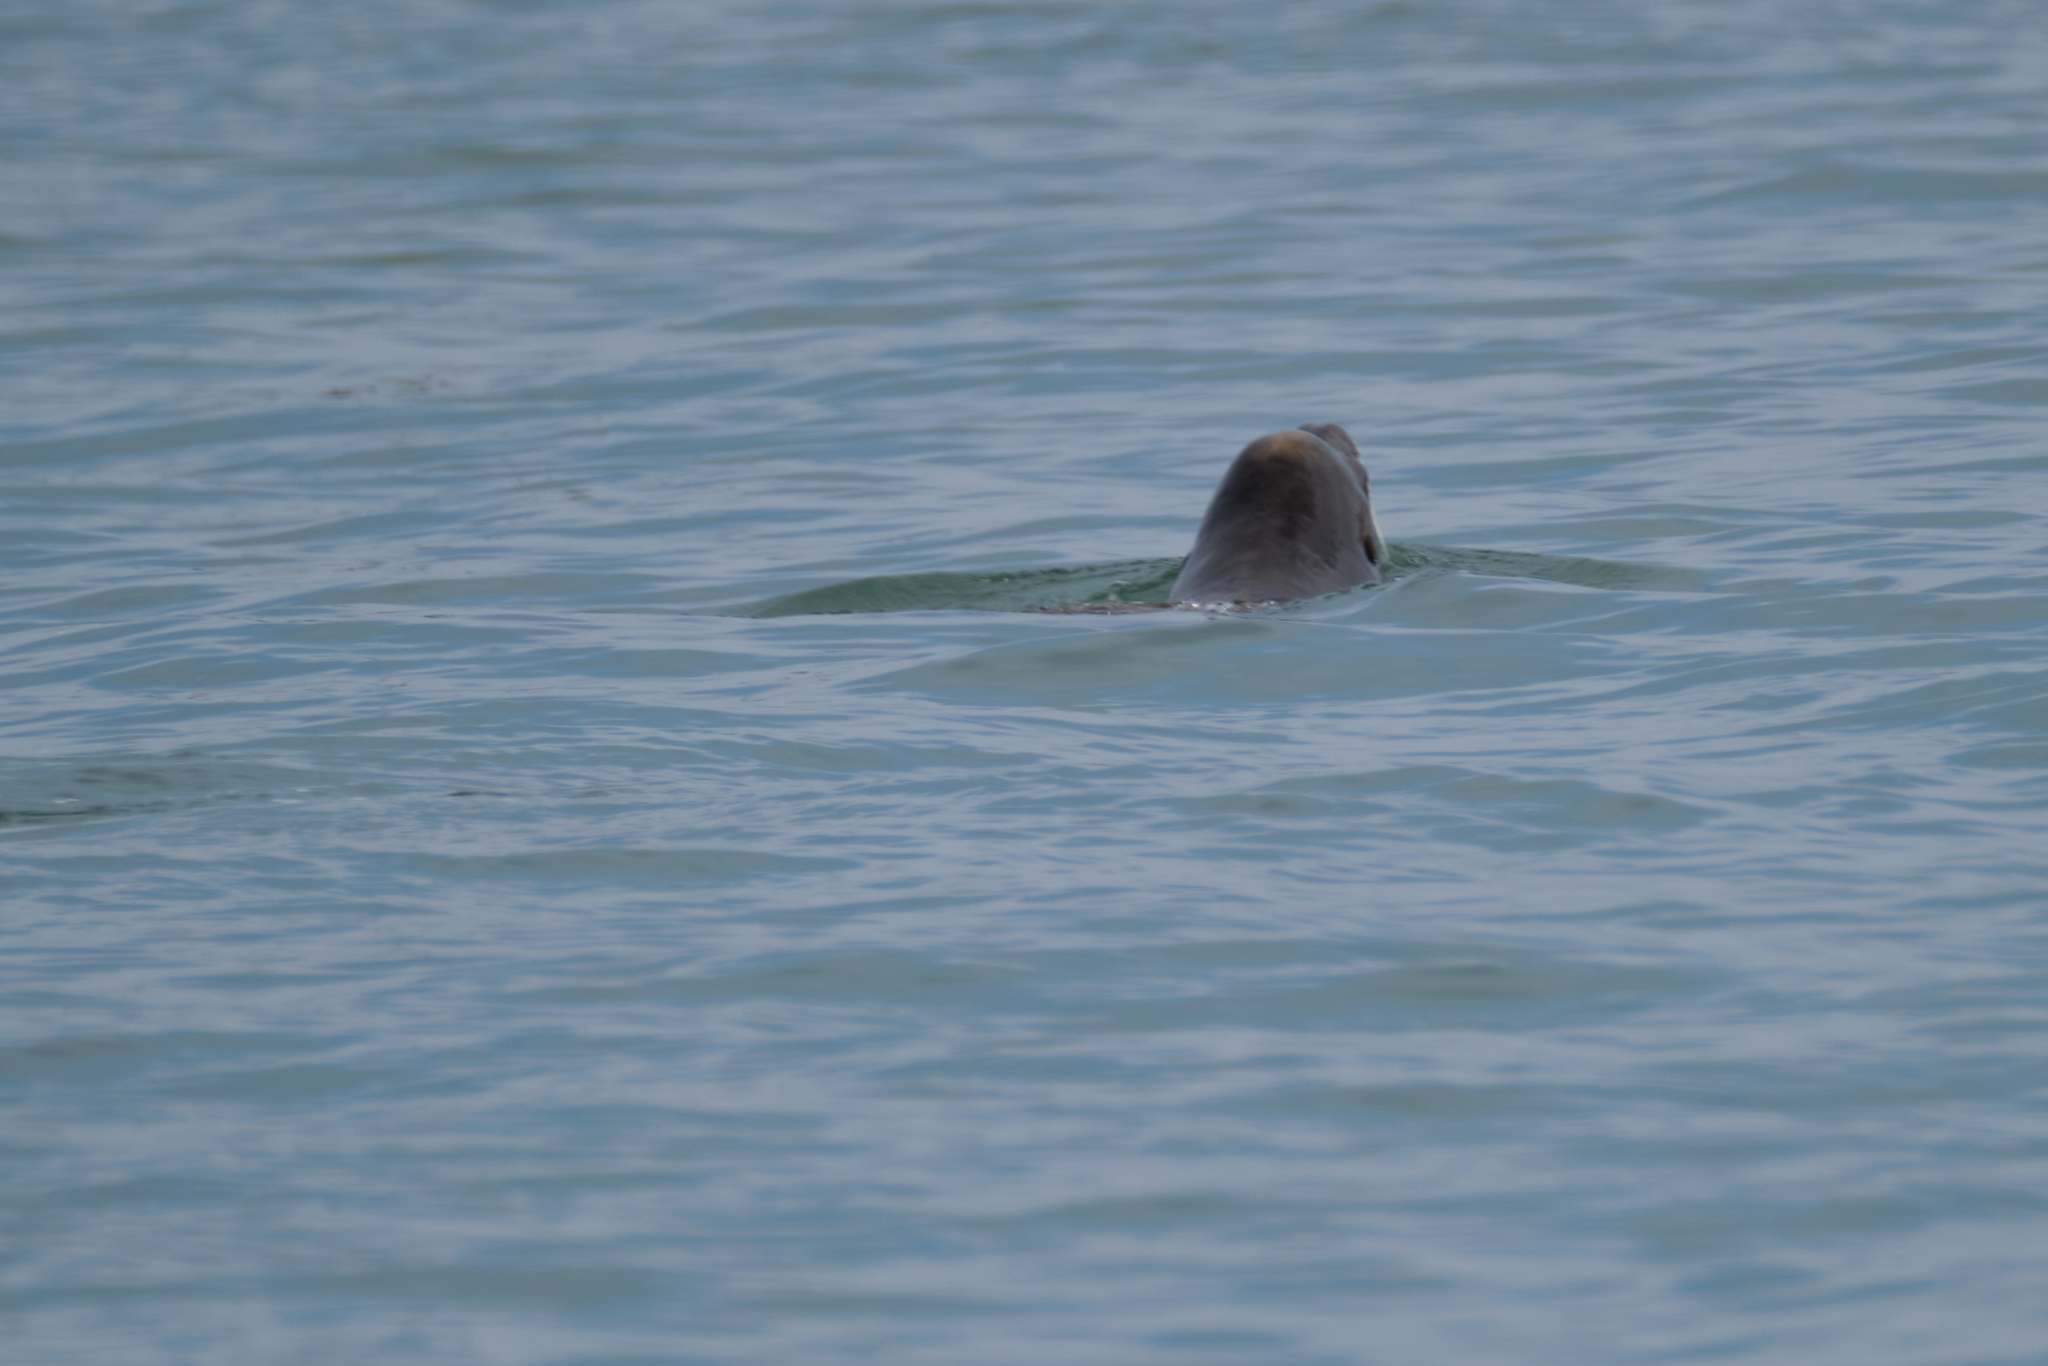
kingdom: Animalia
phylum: Chordata
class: Mammalia
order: Carnivora
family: Otariidae
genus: Zalophus
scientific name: Zalophus californianus
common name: California sea lion
